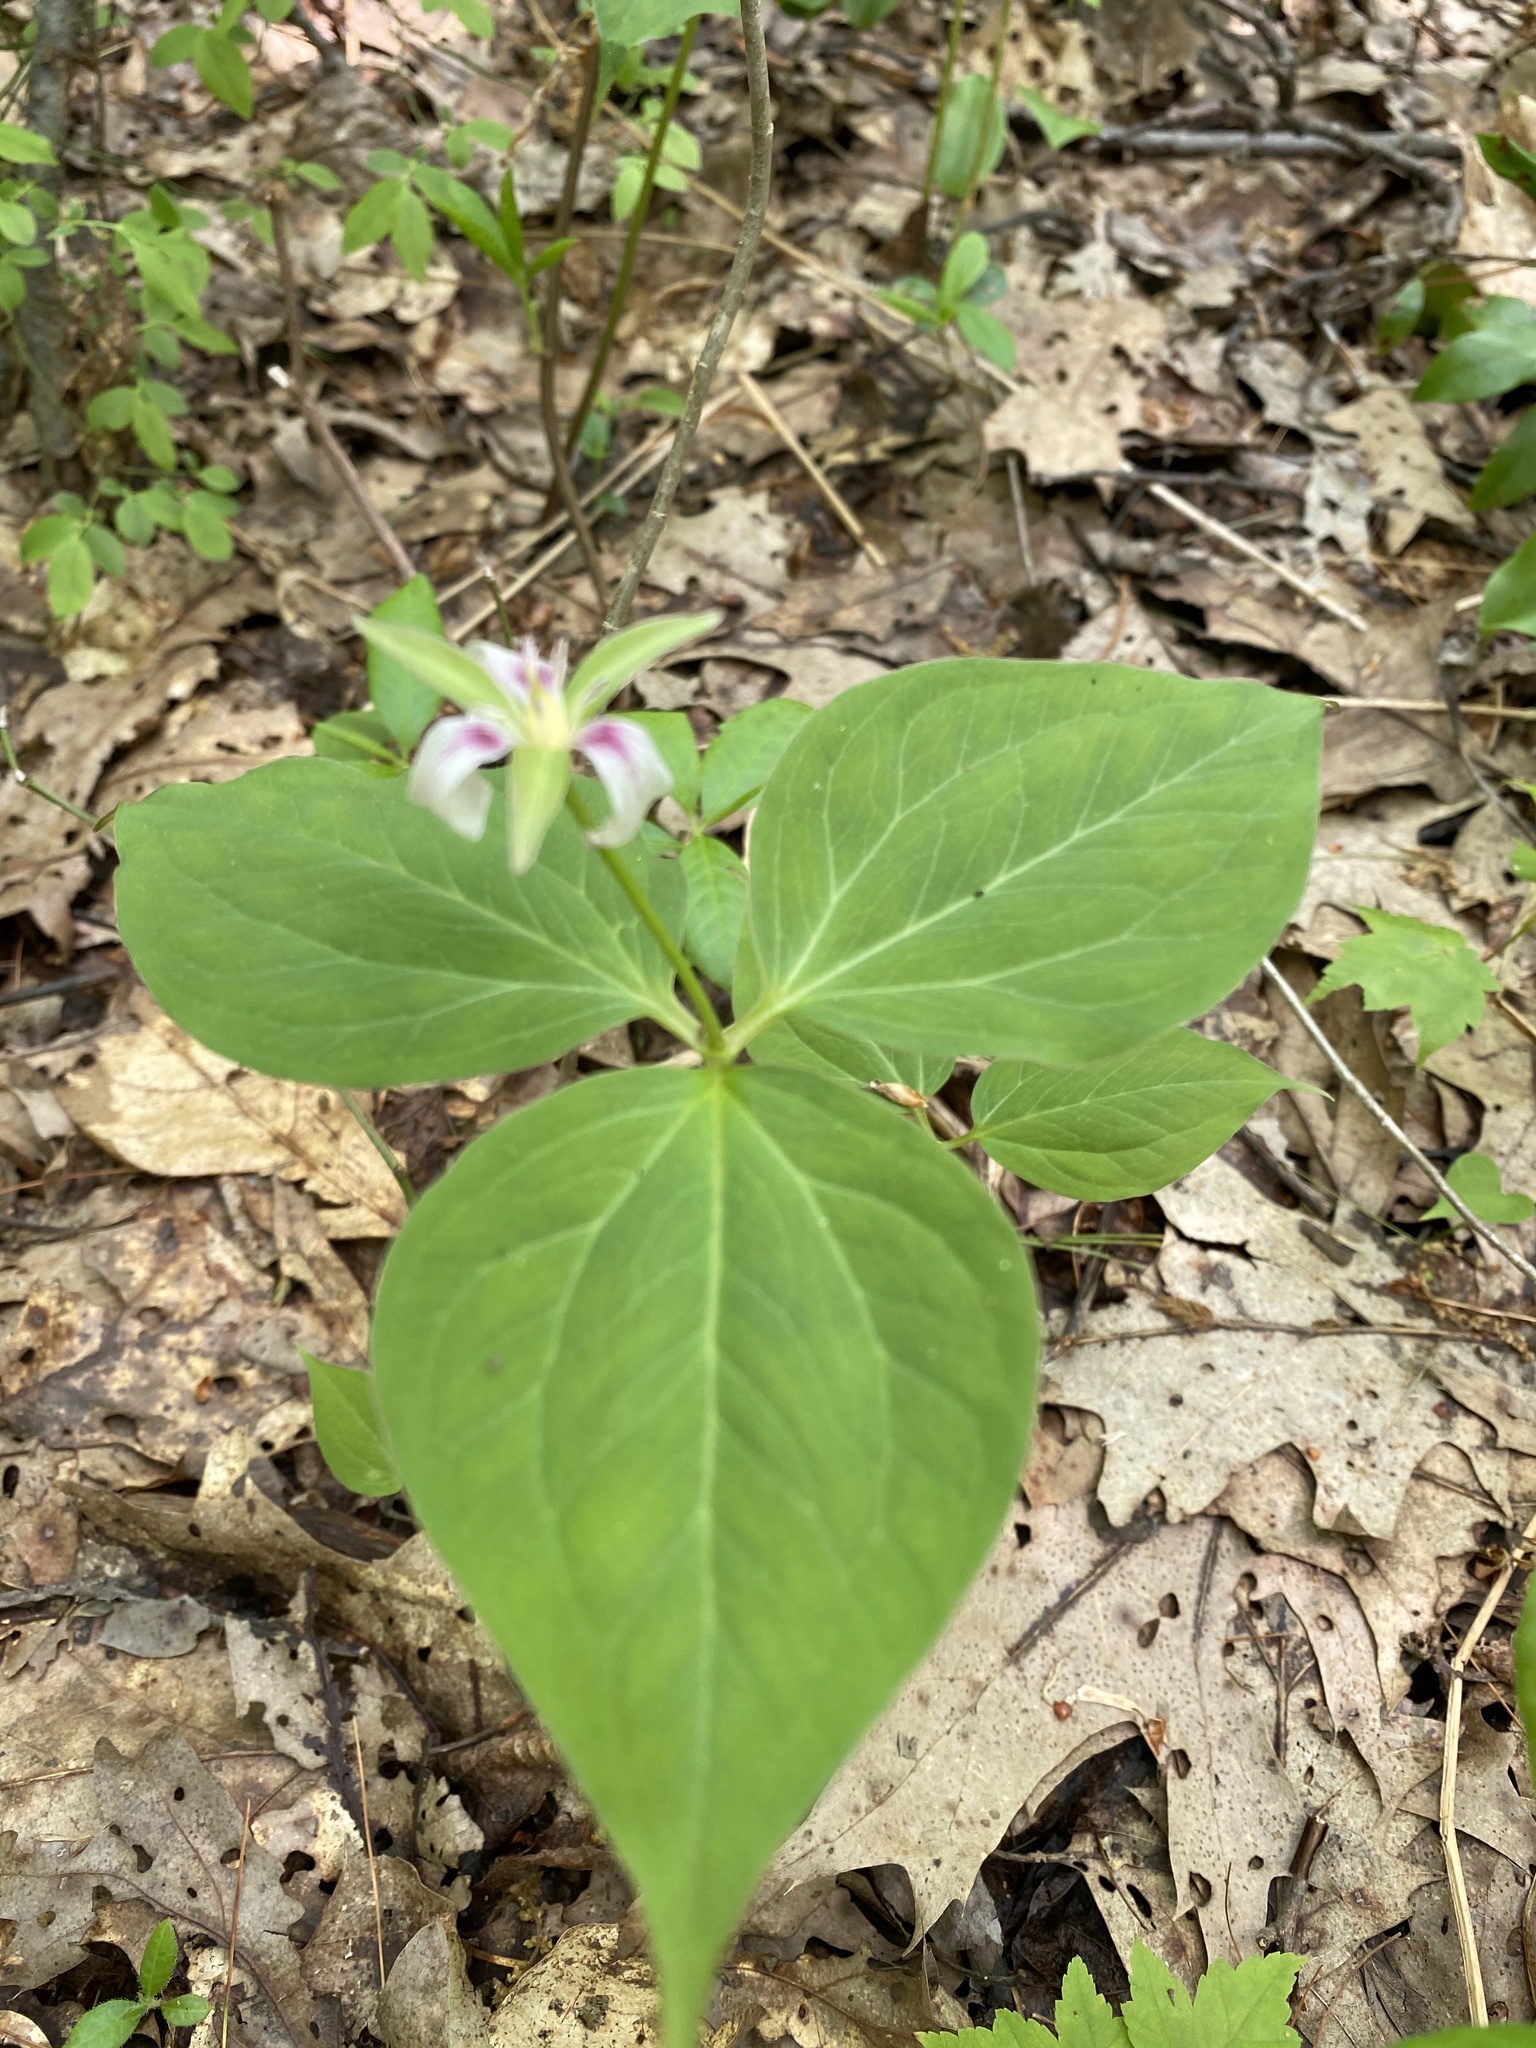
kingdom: Plantae
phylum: Tracheophyta
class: Liliopsida
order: Liliales
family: Melanthiaceae
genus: Trillium
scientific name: Trillium undulatum
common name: Paint trillium
